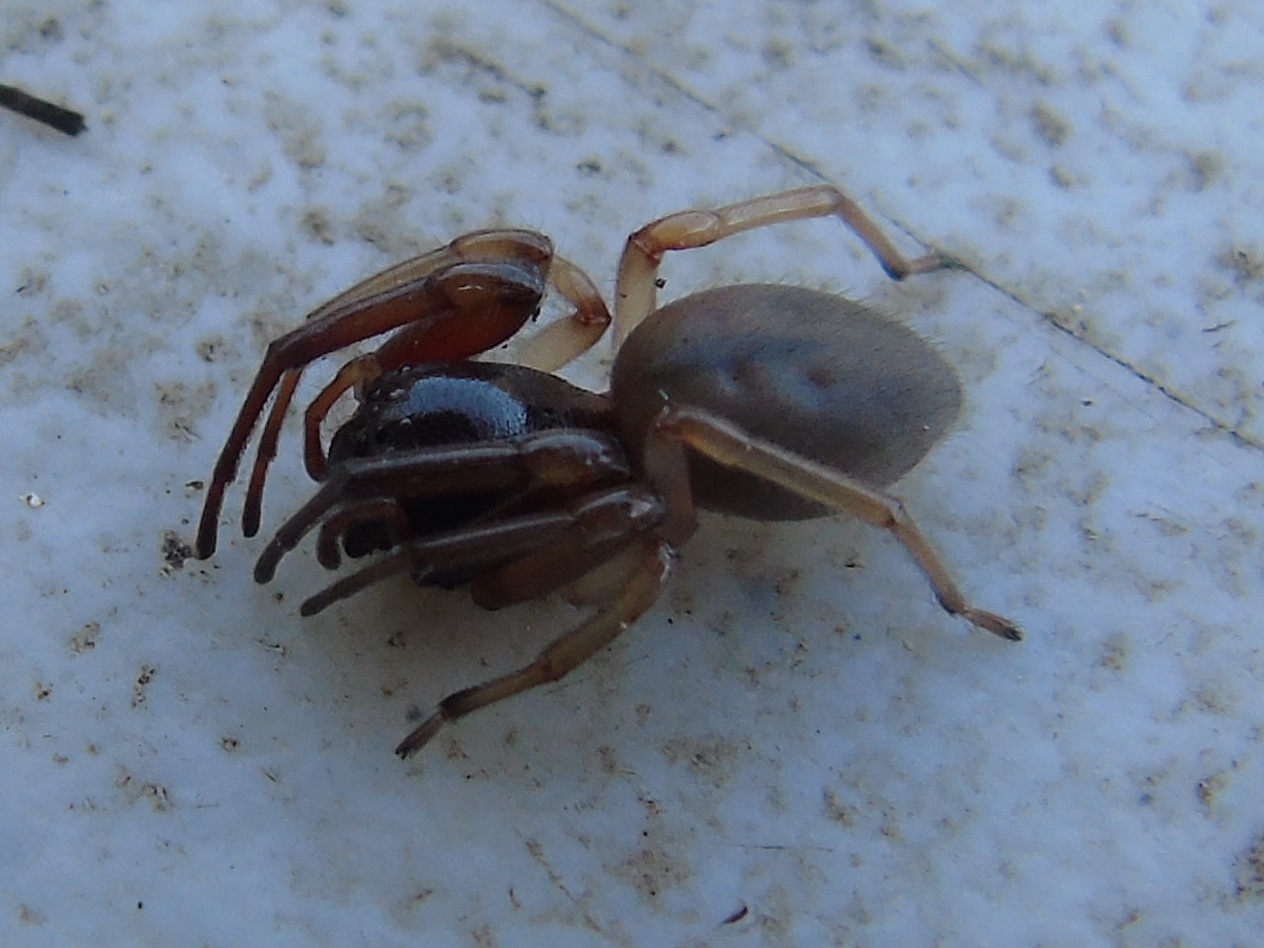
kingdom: Animalia
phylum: Arthropoda
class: Arachnida
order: Araneae
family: Trachelidae
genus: Trachelas
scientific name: Trachelas
